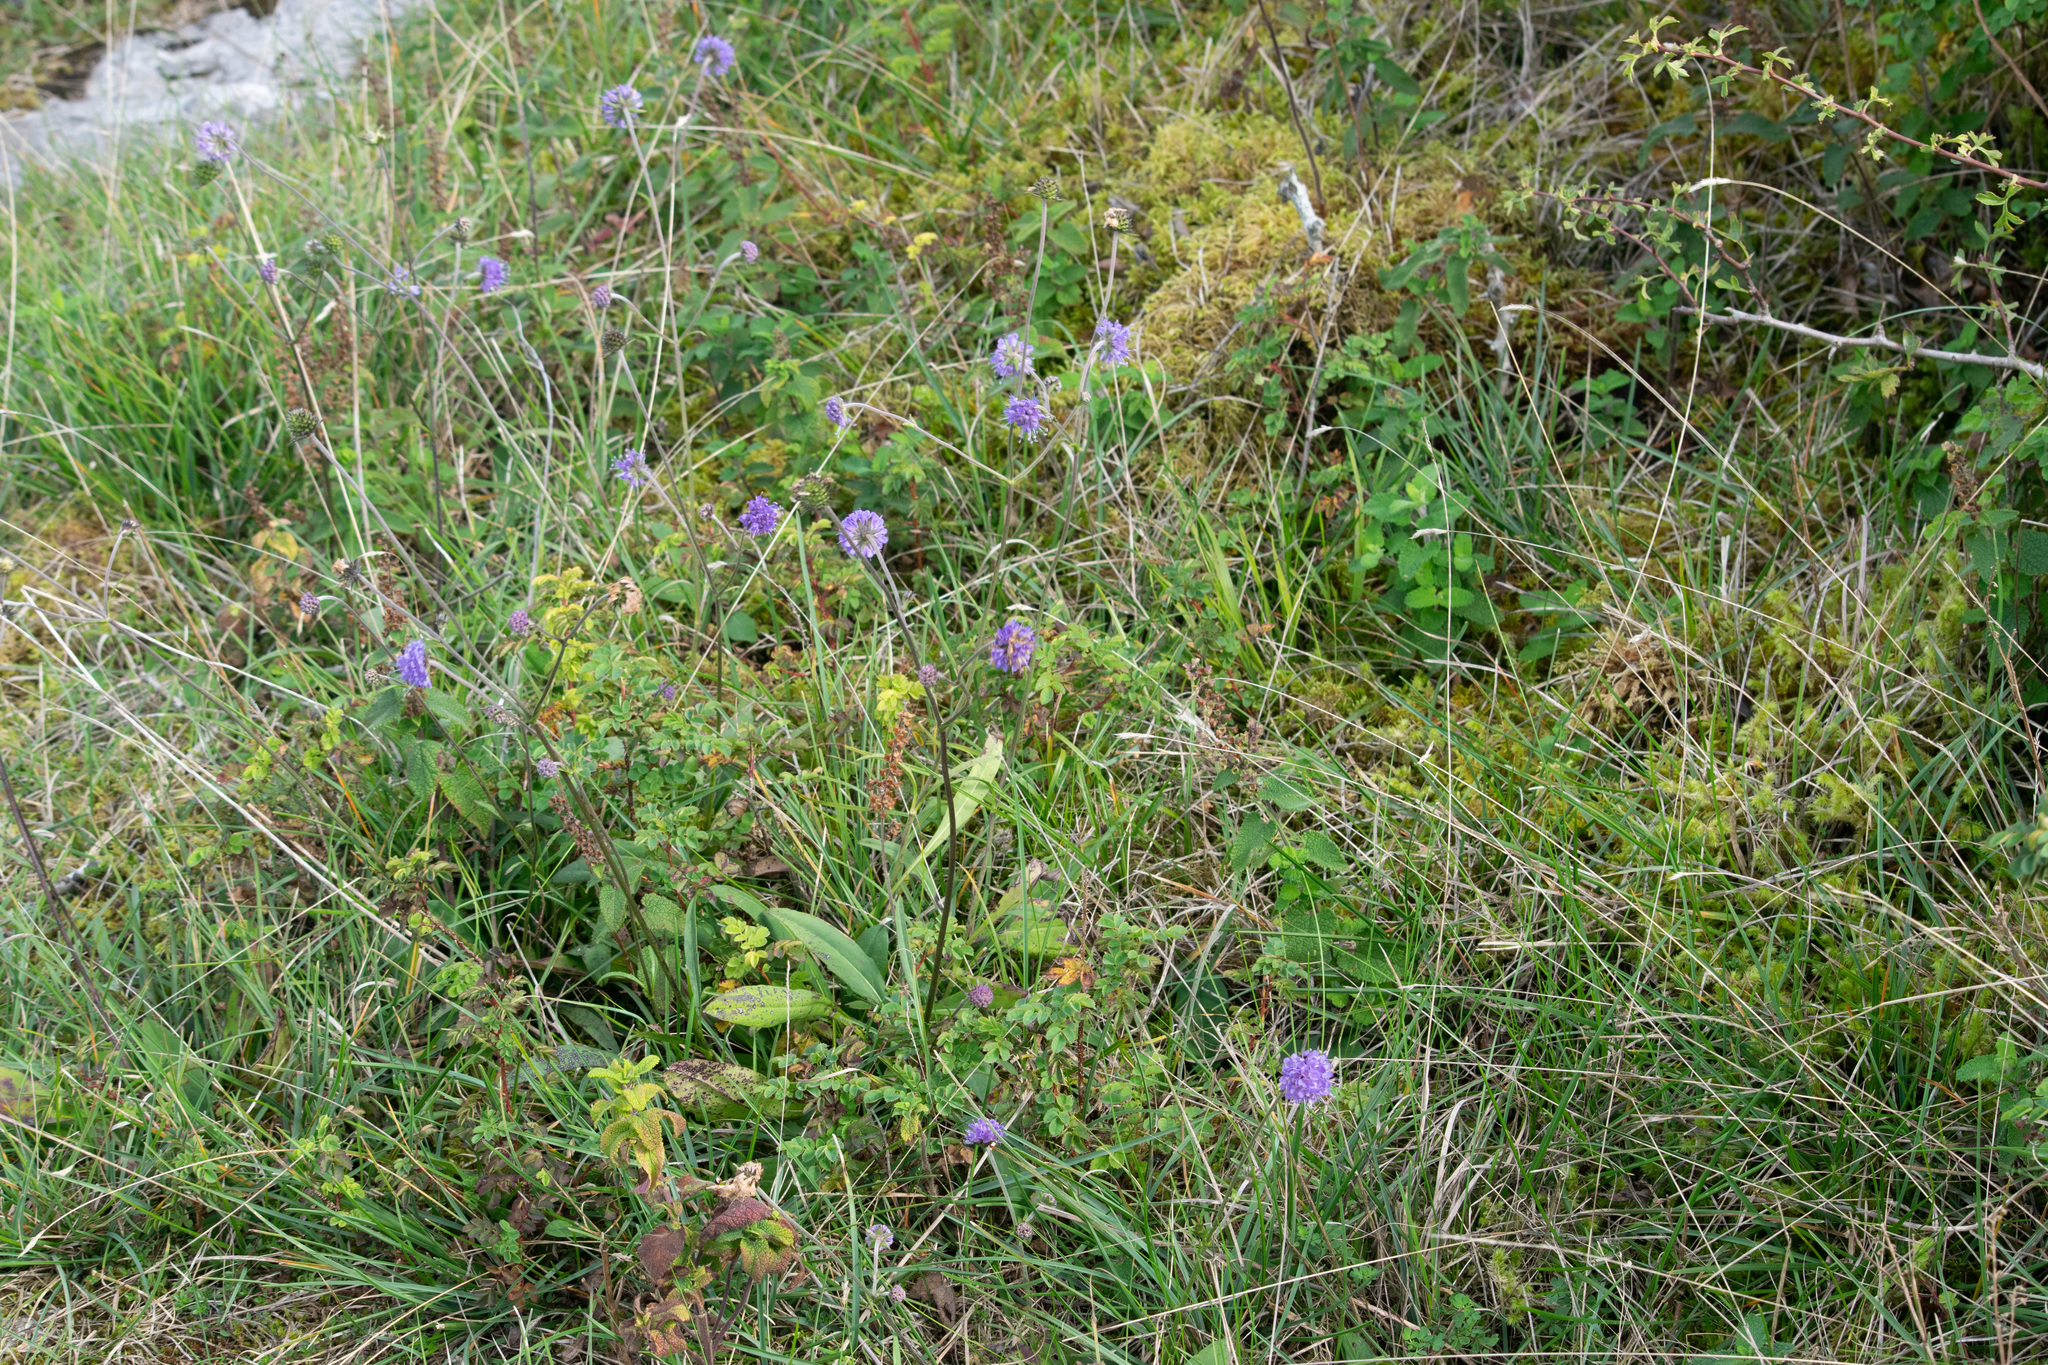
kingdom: Plantae
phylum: Tracheophyta
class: Magnoliopsida
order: Dipsacales
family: Caprifoliaceae
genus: Succisa
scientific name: Succisa pratensis
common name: Devil's-bit
